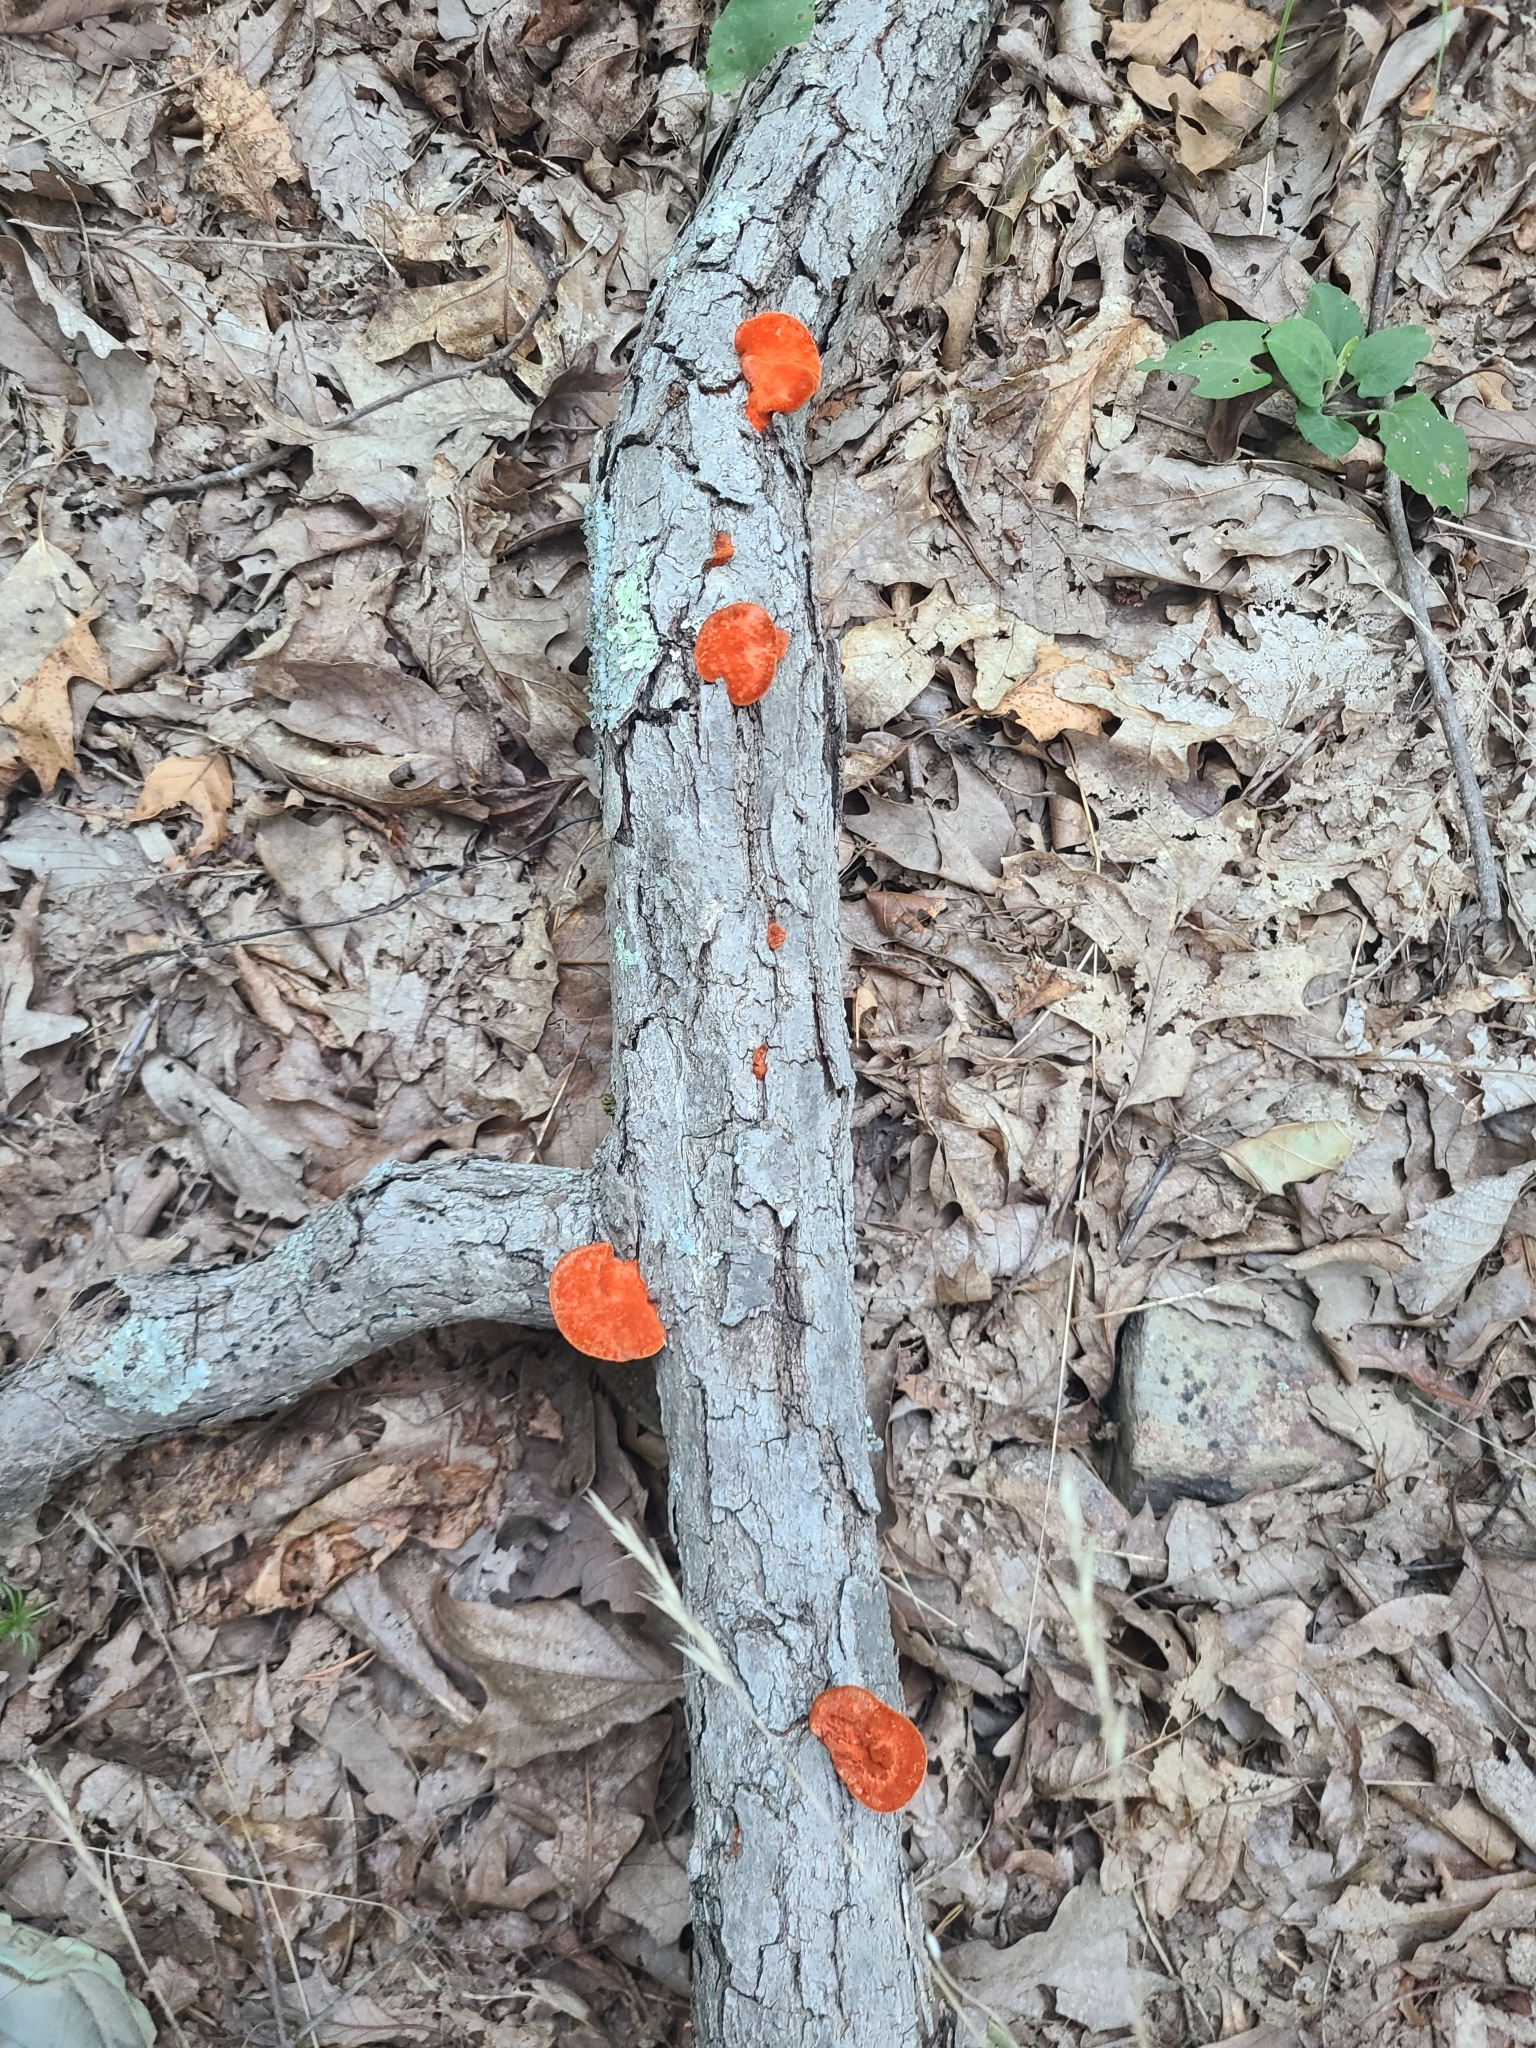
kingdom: Fungi
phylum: Basidiomycota
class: Agaricomycetes
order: Polyporales
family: Polyporaceae
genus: Trametes
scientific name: Trametes cinnabarina
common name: Northern cinnabar polypore
